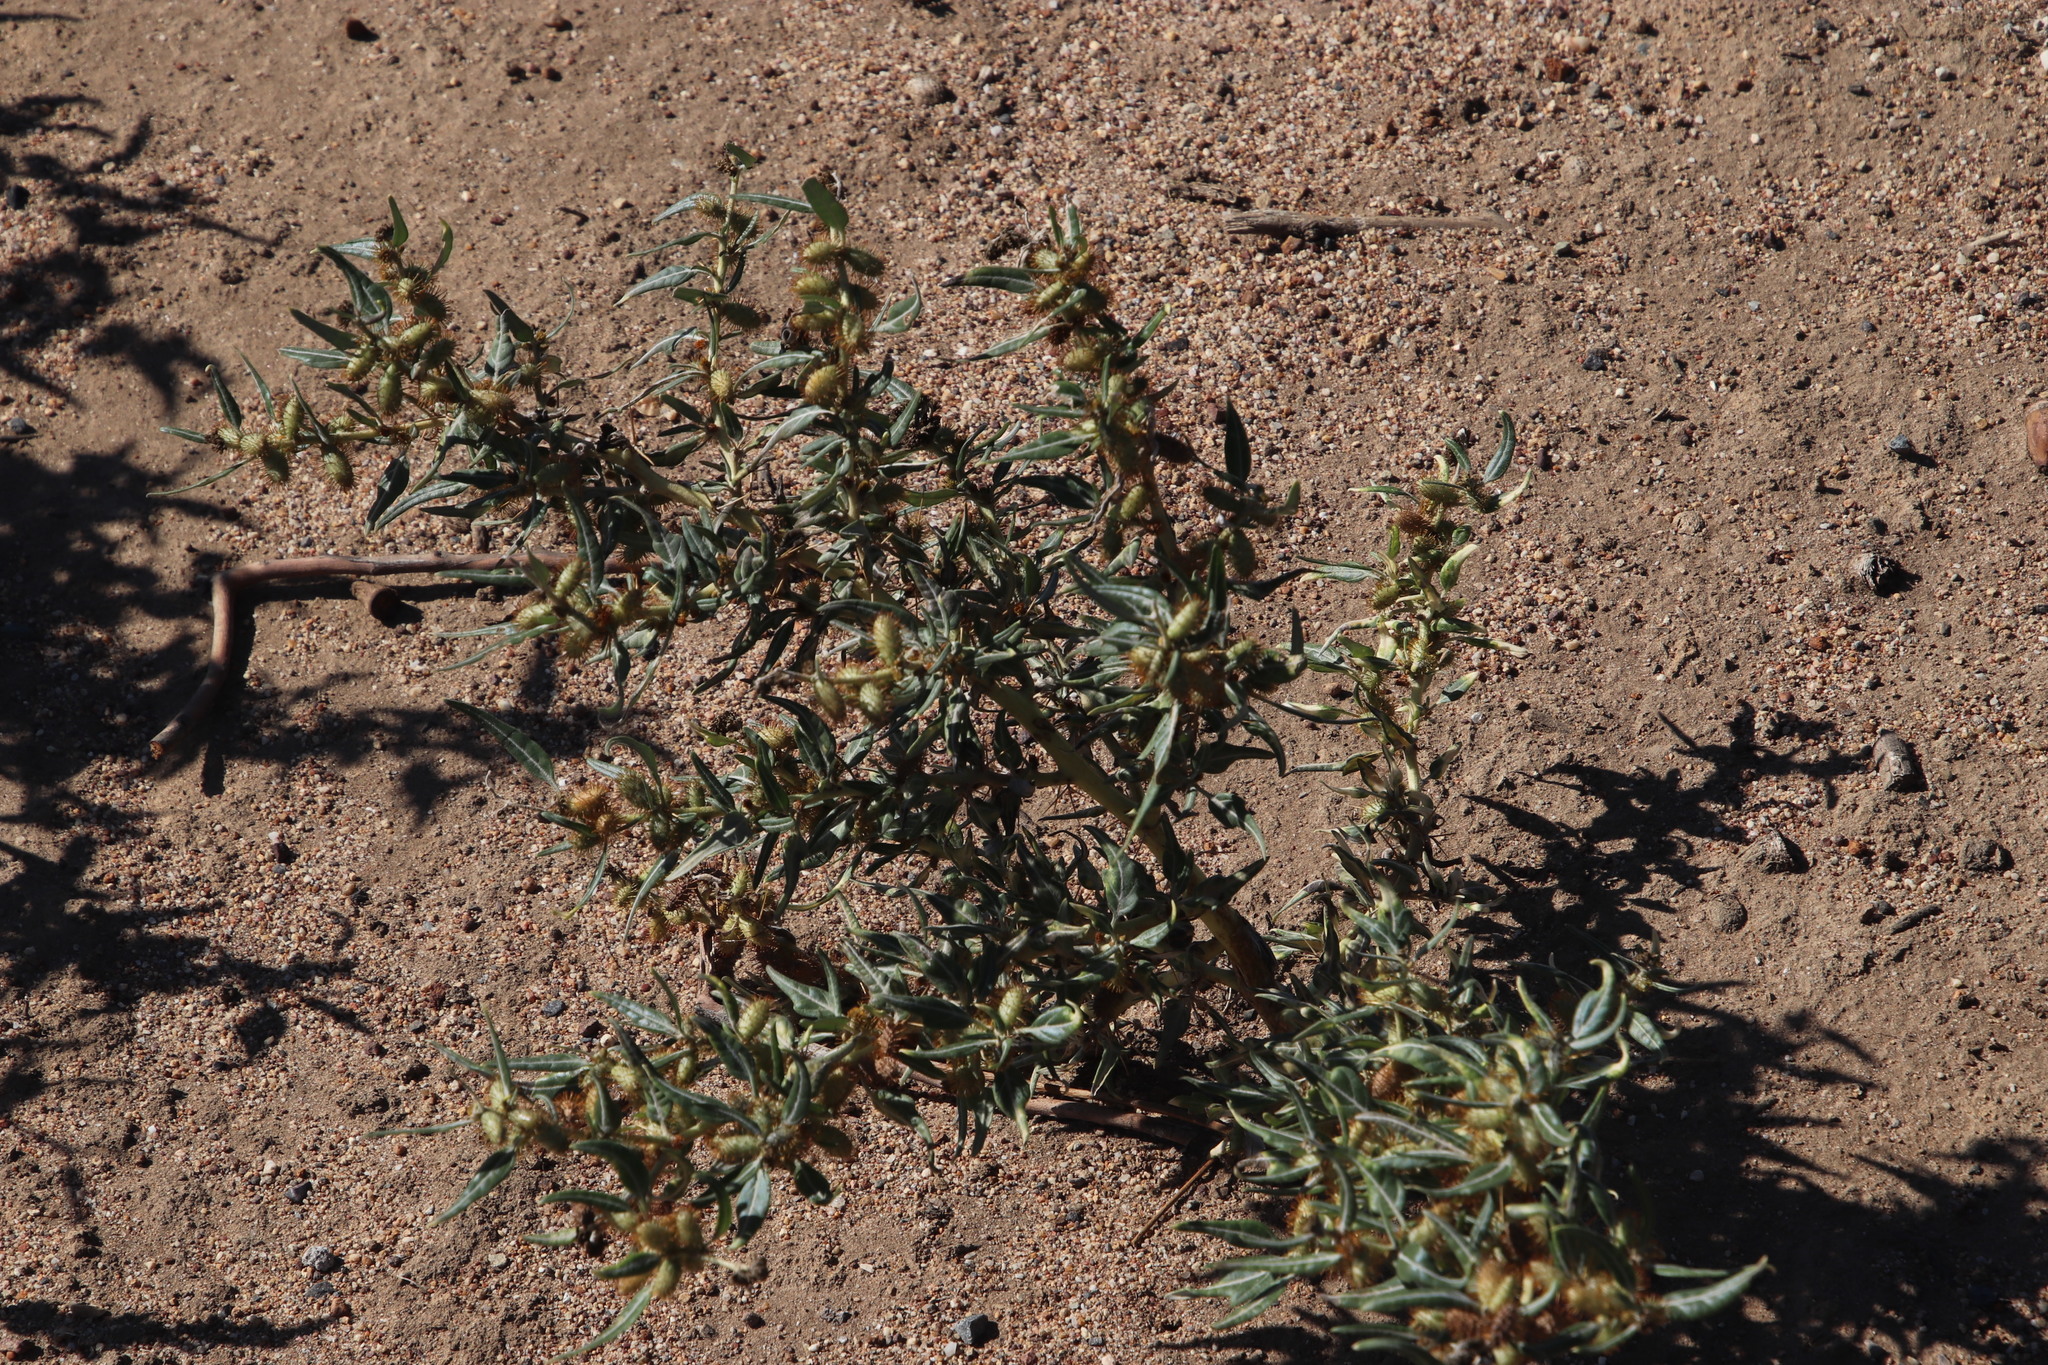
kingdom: Plantae
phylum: Tracheophyta
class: Magnoliopsida
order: Asterales
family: Asteraceae
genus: Xanthium
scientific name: Xanthium spinosum
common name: Spiny cocklebur
